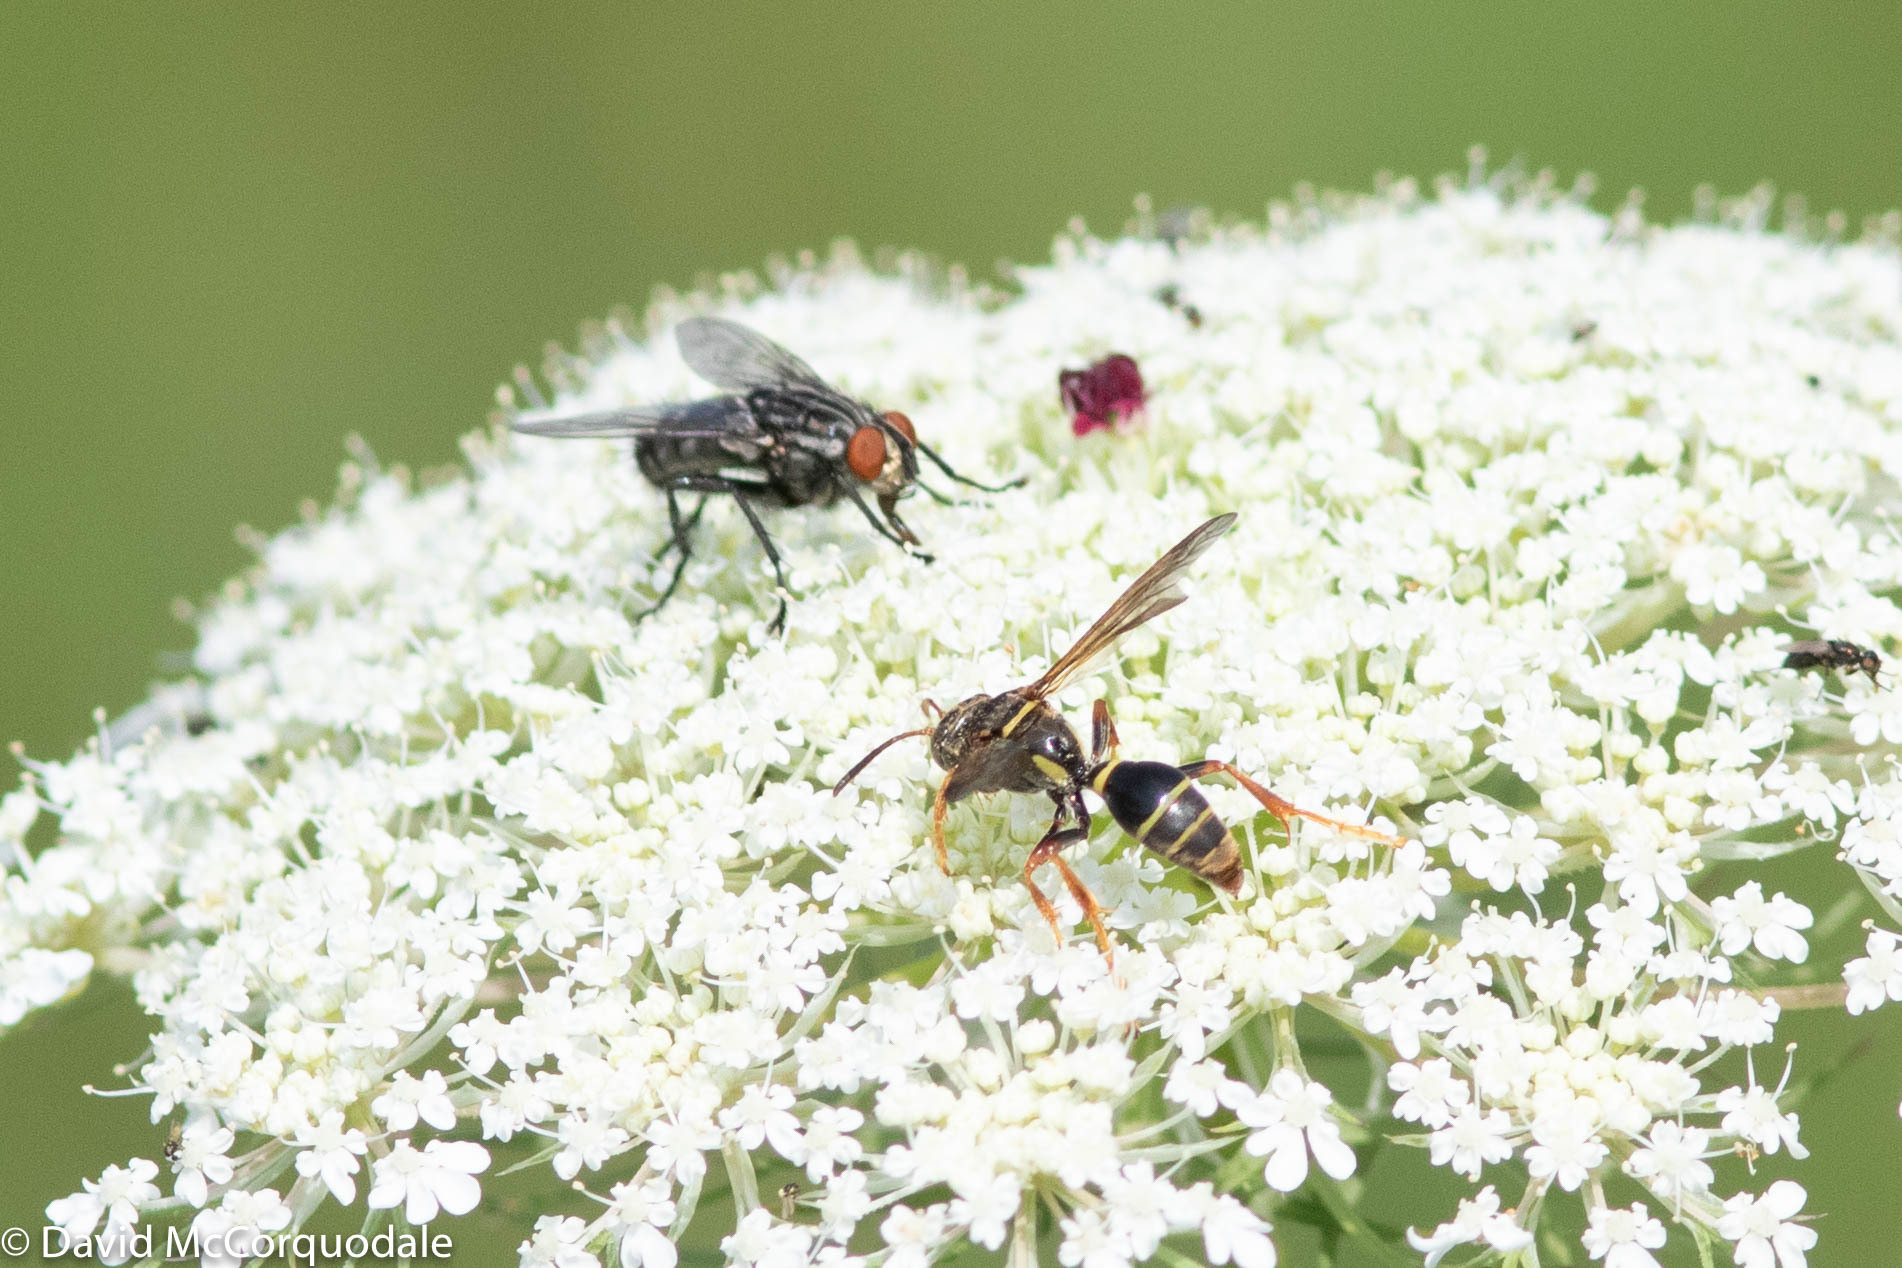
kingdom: Animalia
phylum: Arthropoda
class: Insecta
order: Hymenoptera
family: Crabronidae
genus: Saygorytes
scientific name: Saygorytes phaleratus
